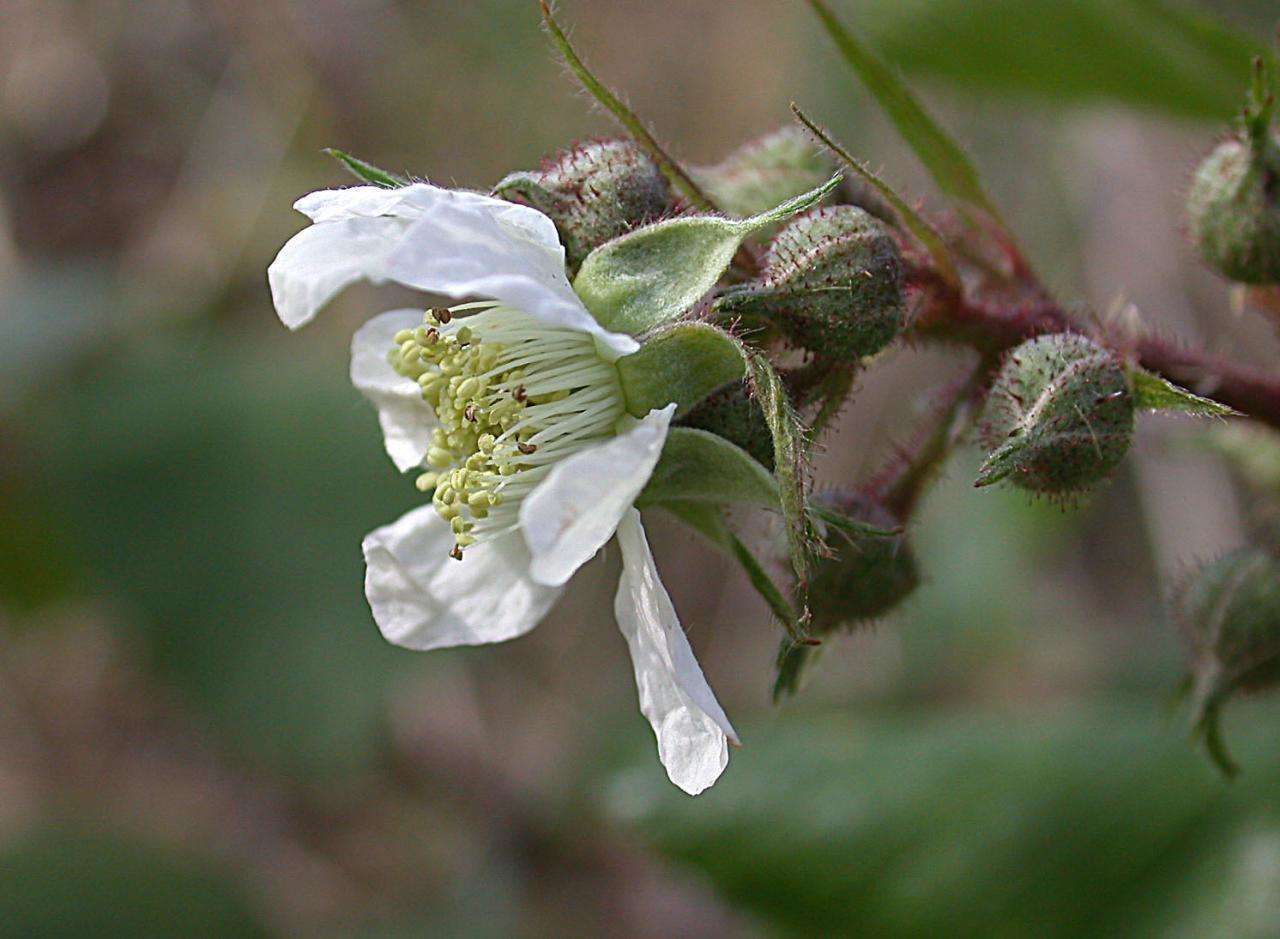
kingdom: Plantae
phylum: Tracheophyta
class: Magnoliopsida
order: Rosales
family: Rosaceae
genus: Rubus
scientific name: Rubus vestitus
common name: European blackberry
